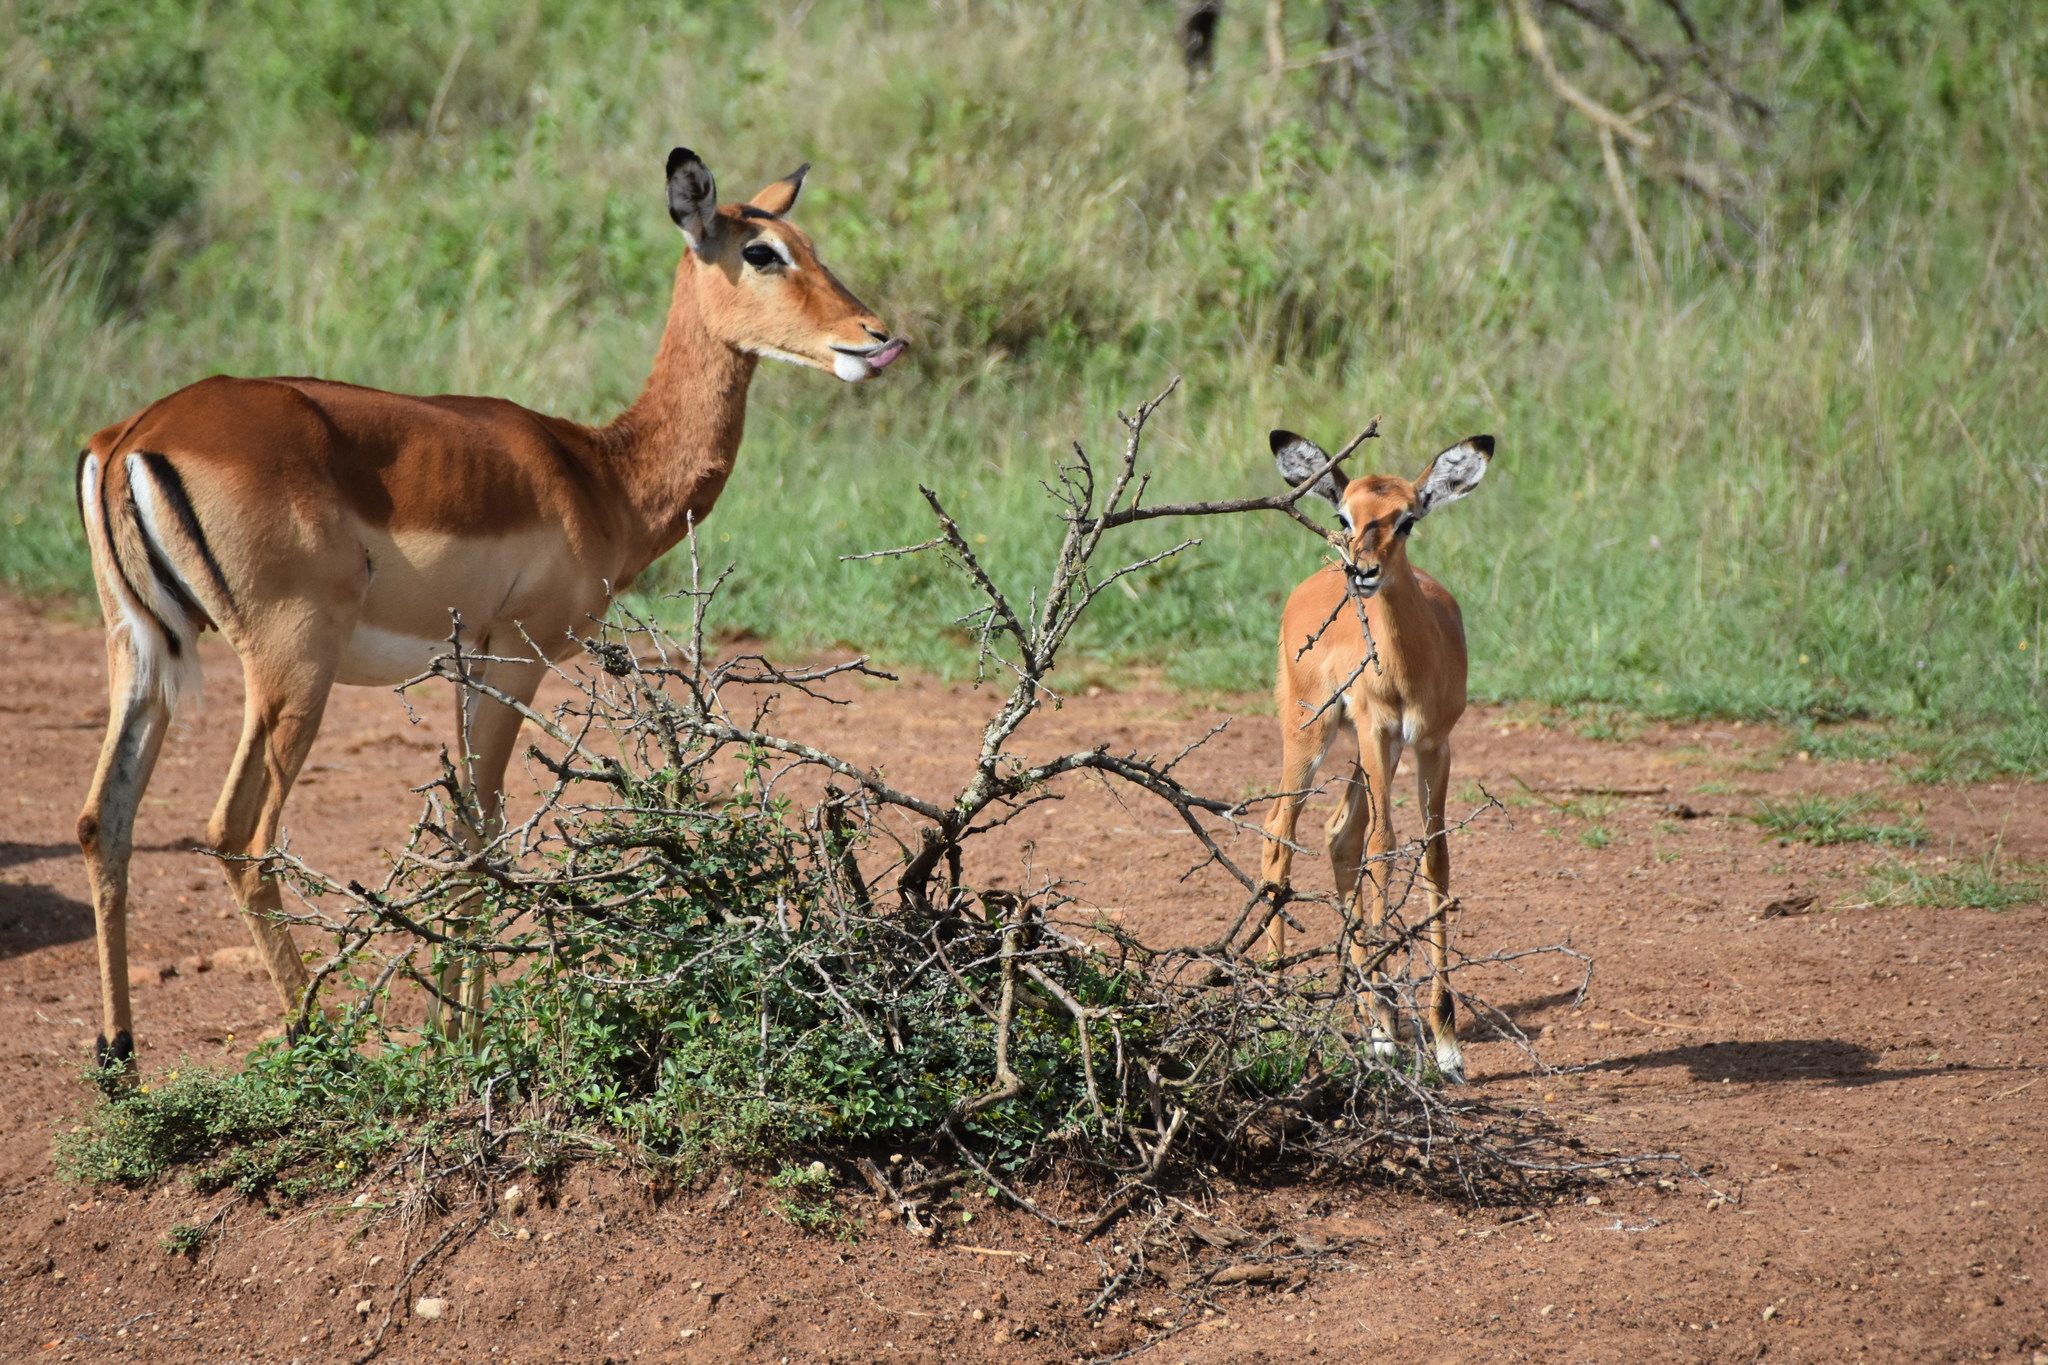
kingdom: Animalia
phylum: Chordata
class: Mammalia
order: Artiodactyla
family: Bovidae
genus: Aepyceros
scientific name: Aepyceros melampus
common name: Impala
